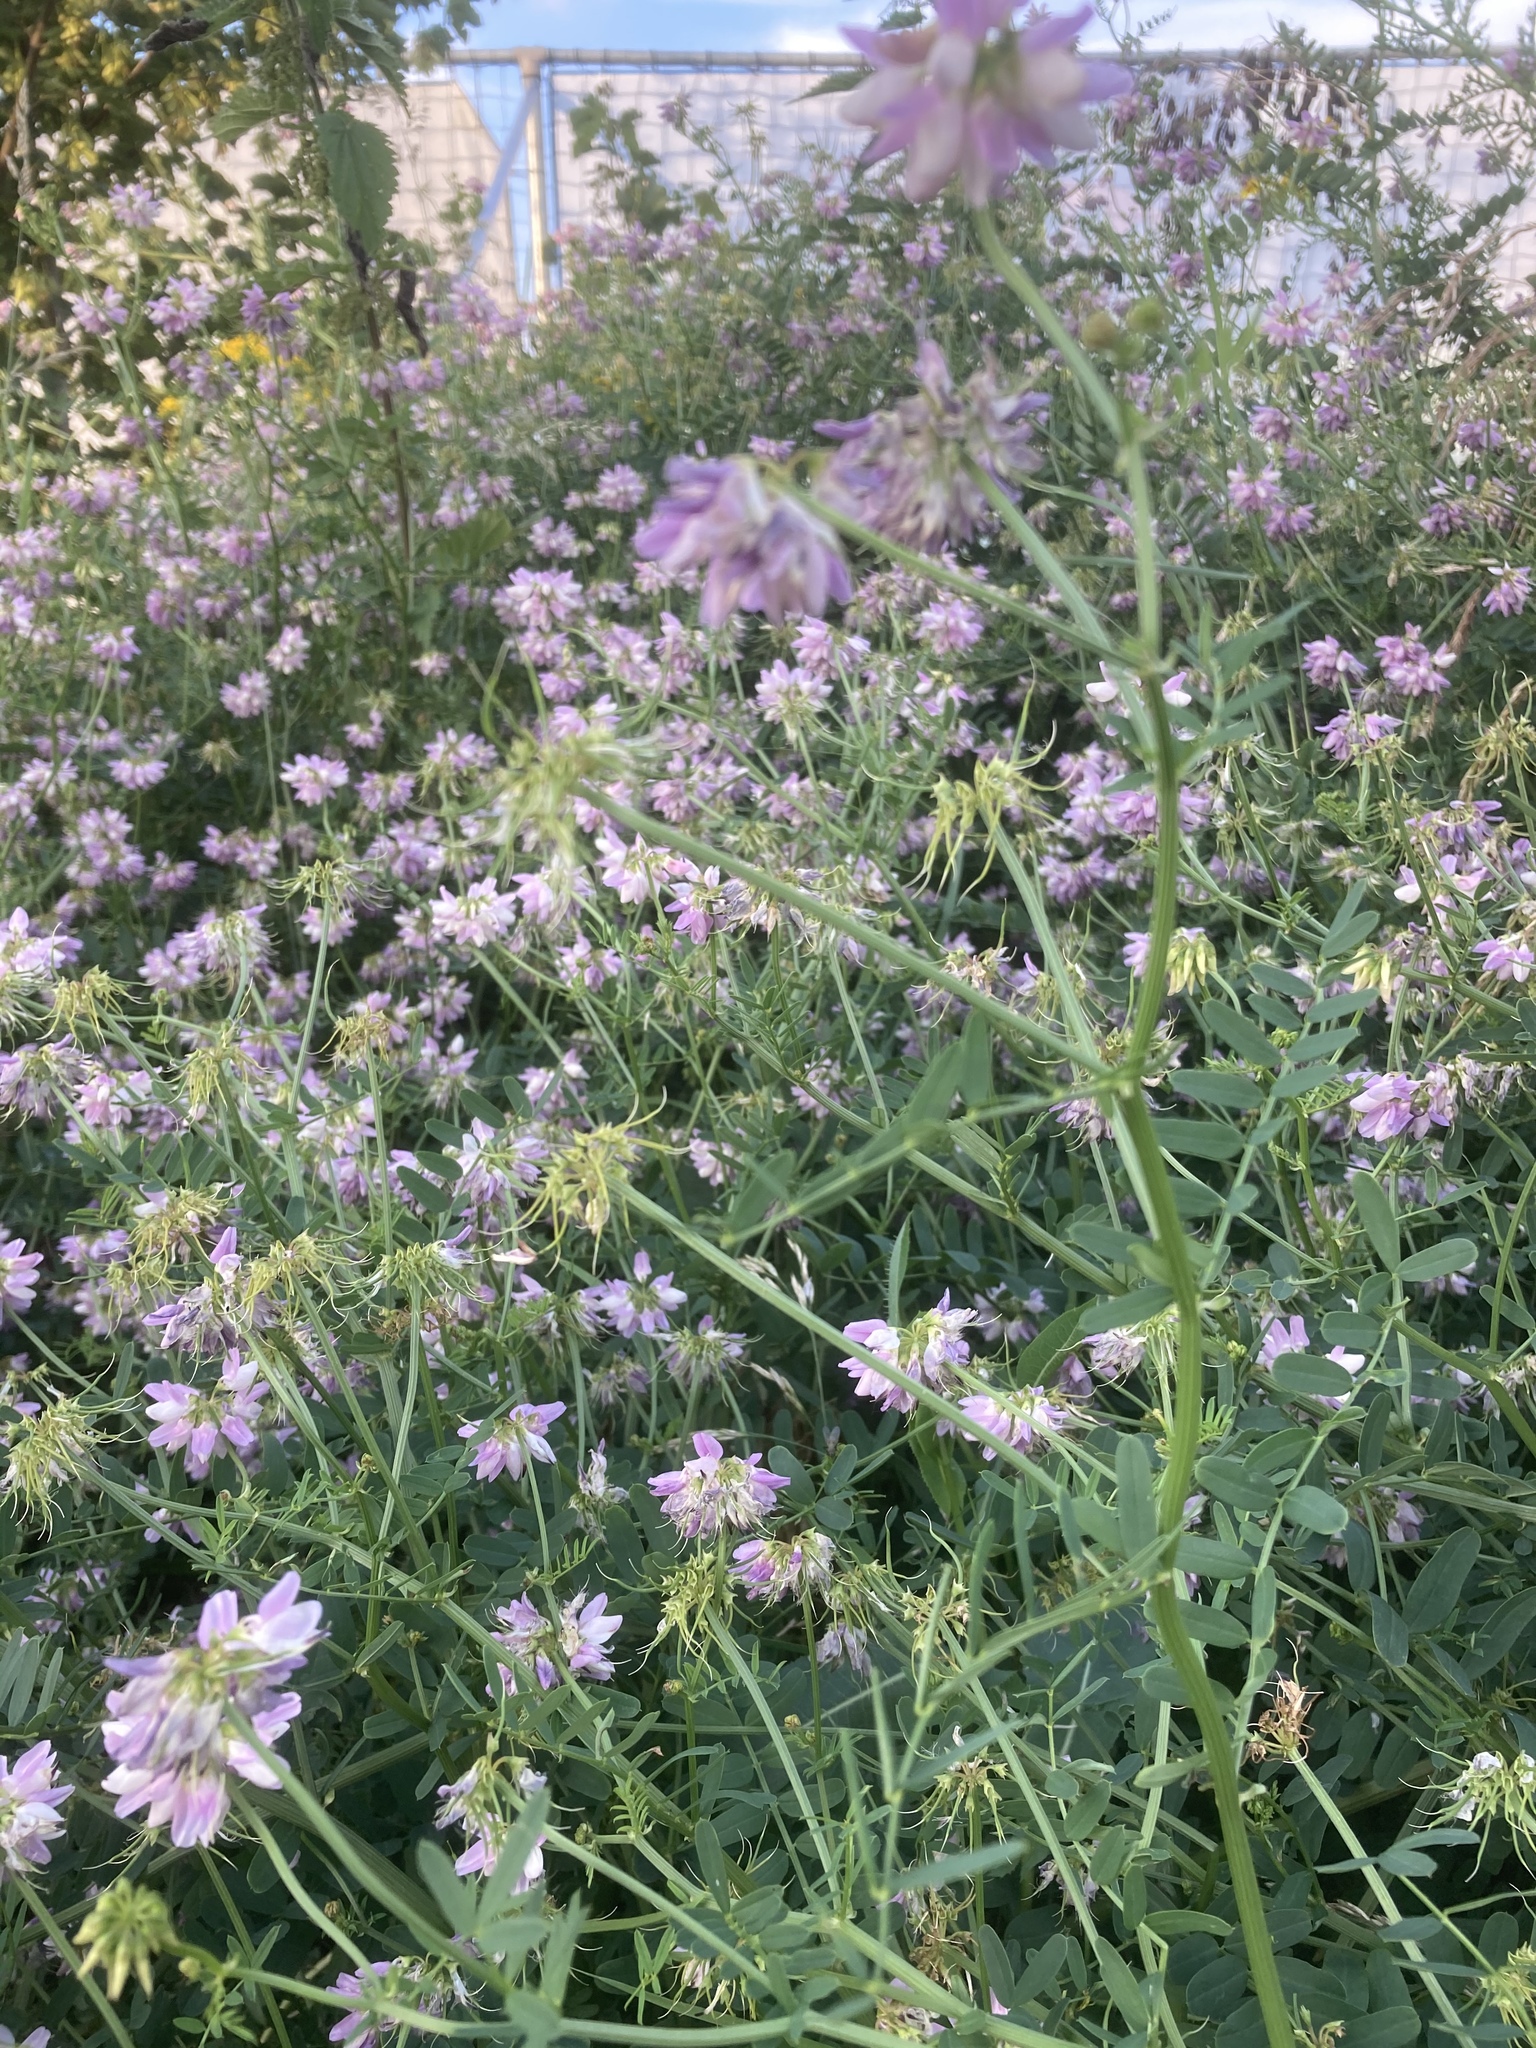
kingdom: Plantae
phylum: Tracheophyta
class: Magnoliopsida
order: Fabales
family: Fabaceae
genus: Coronilla
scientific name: Coronilla varia
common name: Crownvetch
